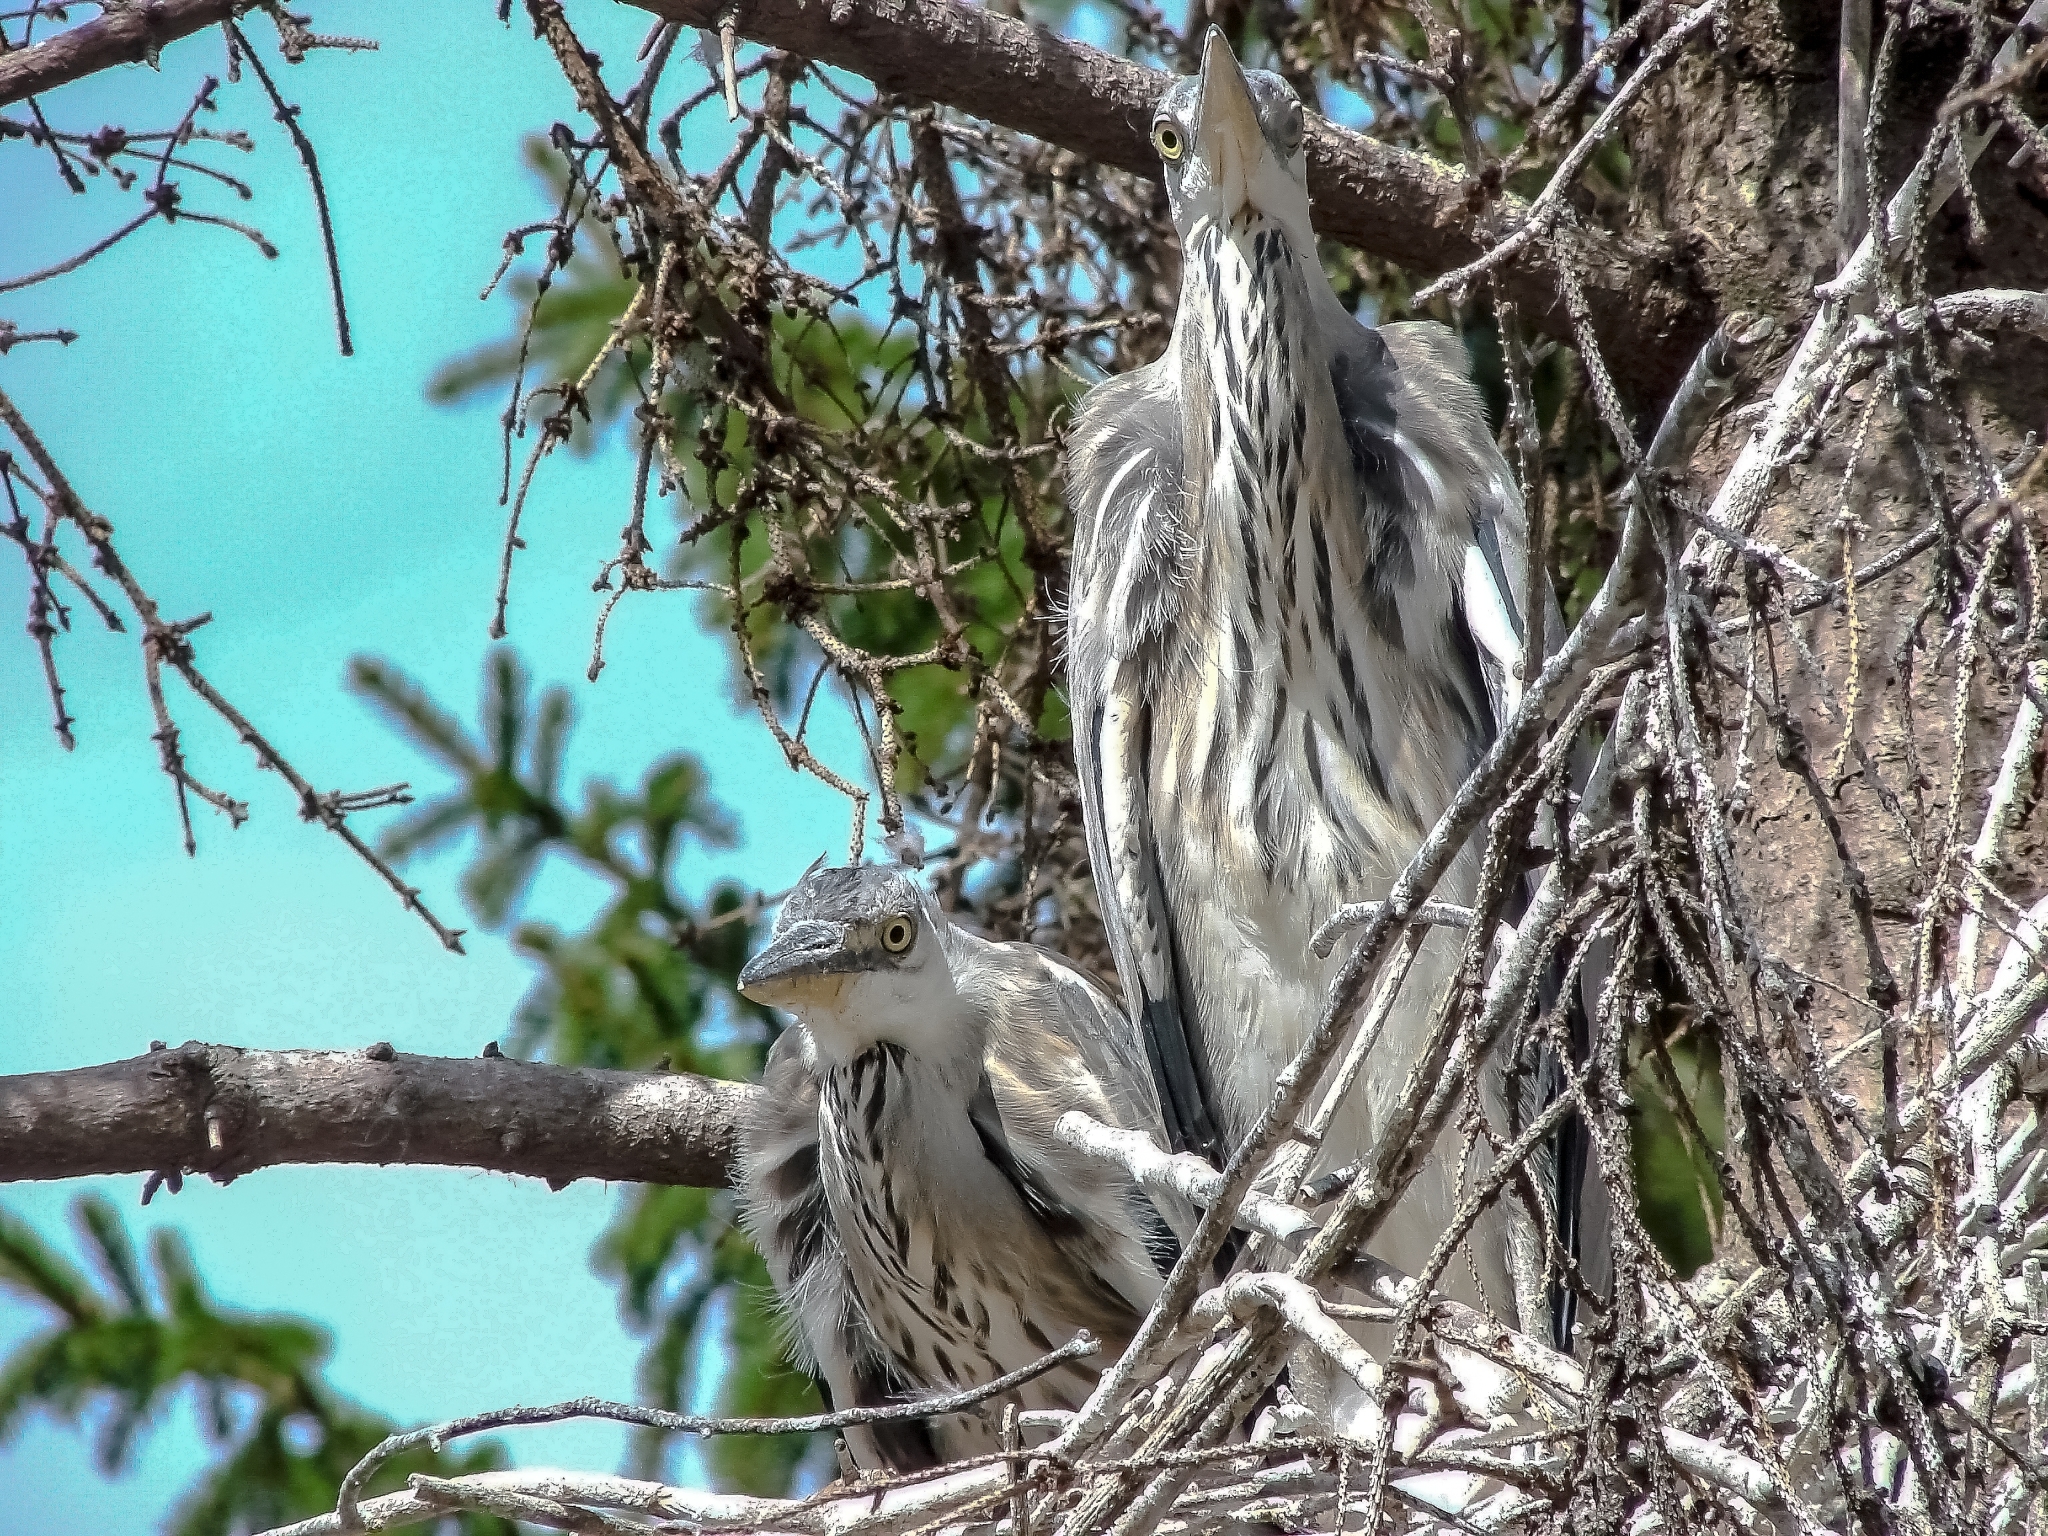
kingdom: Animalia
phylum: Chordata
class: Aves
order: Pelecaniformes
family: Ardeidae
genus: Ardea
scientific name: Ardea cinerea
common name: Grey heron
